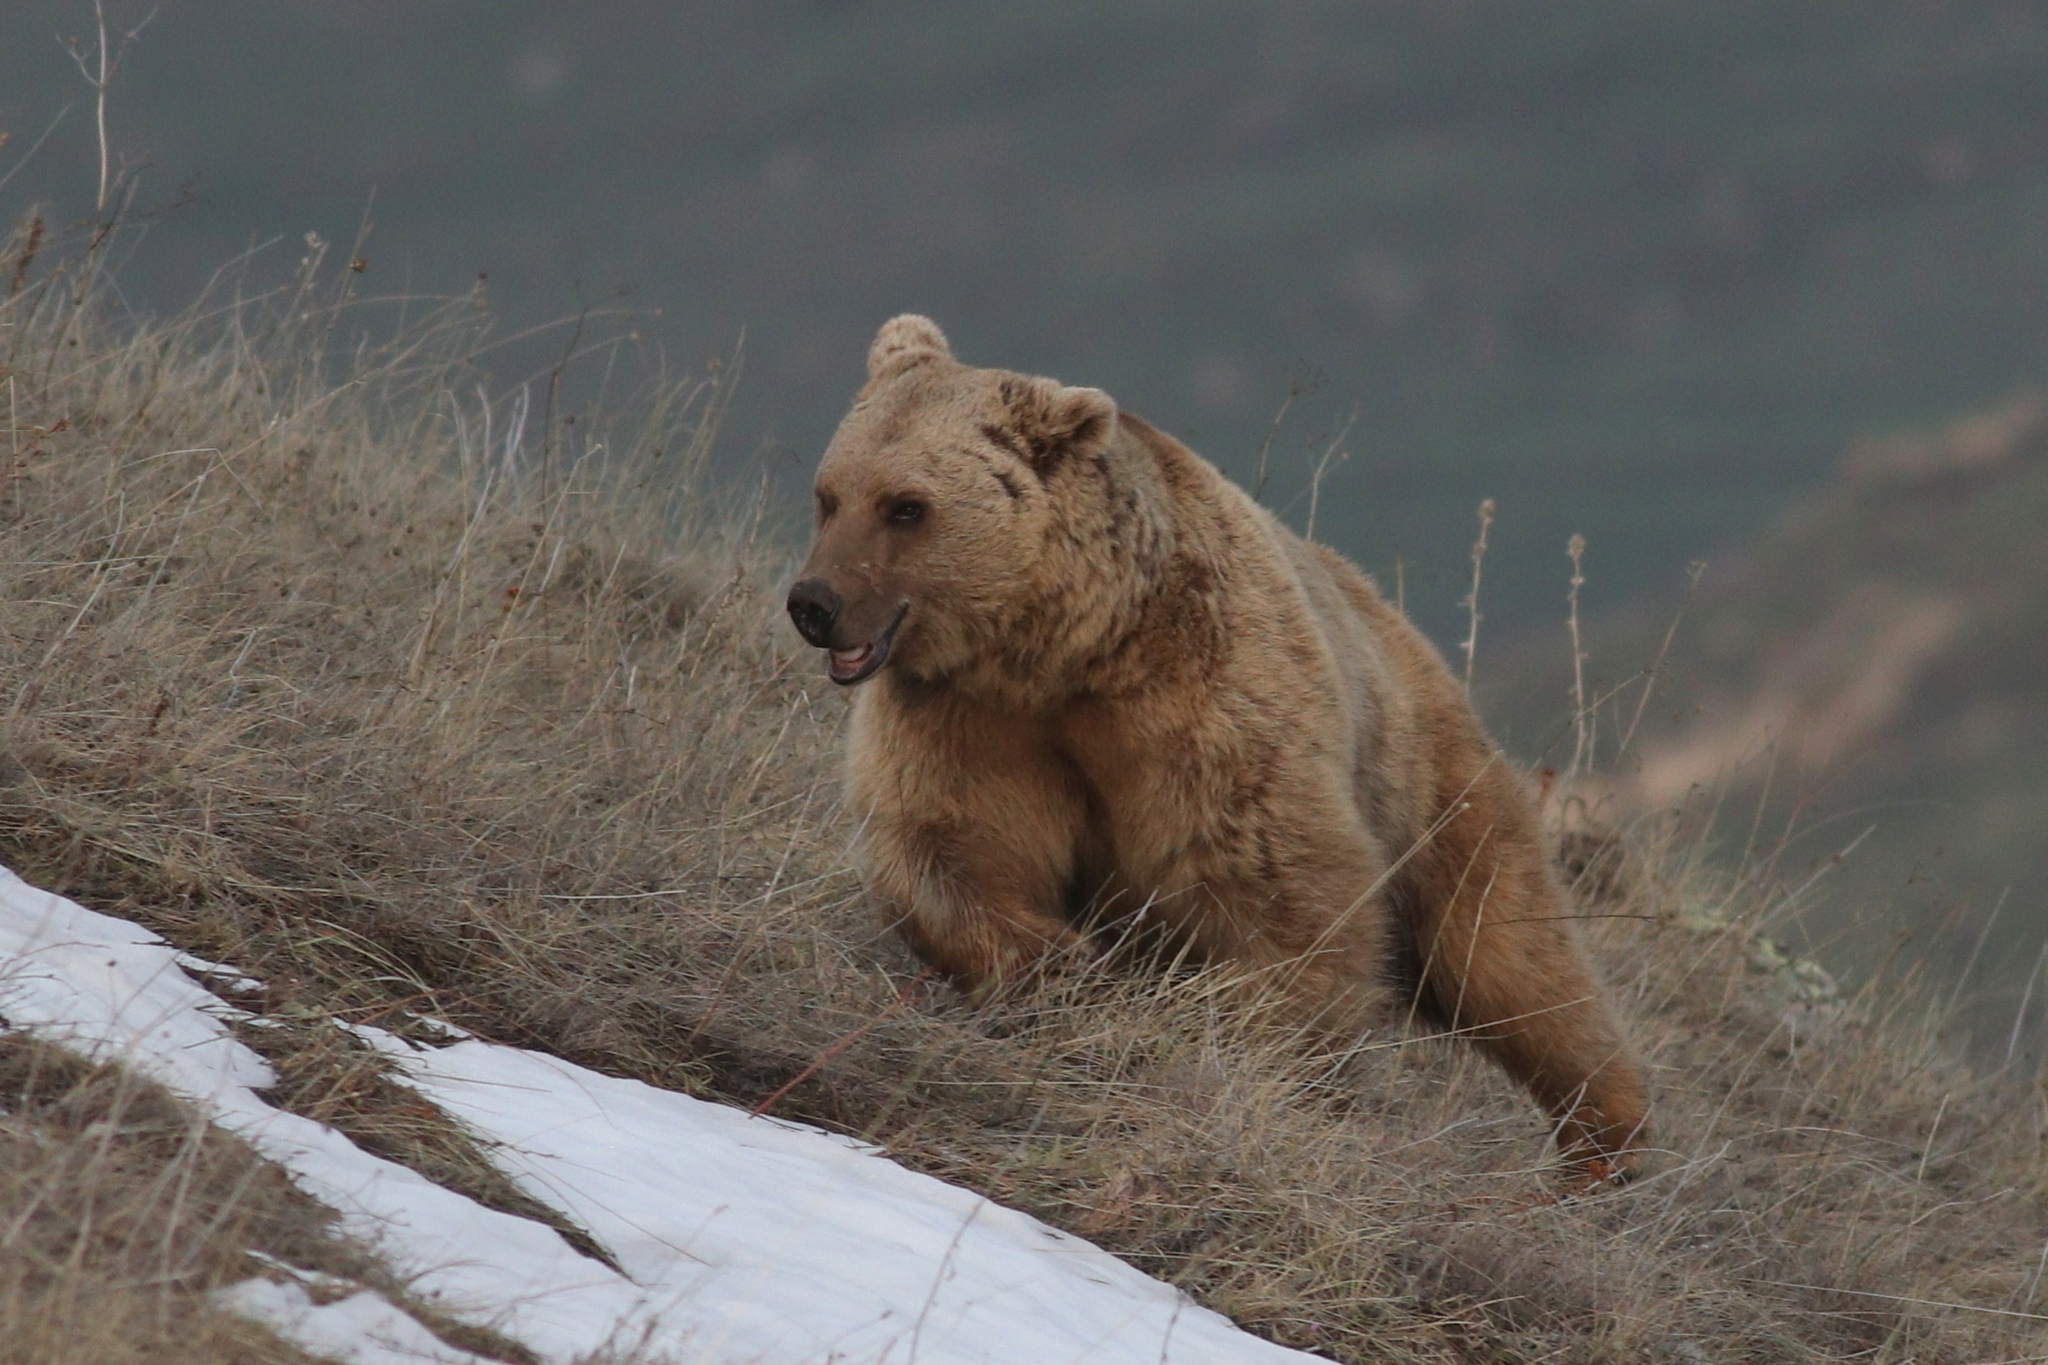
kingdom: Animalia
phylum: Chordata
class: Mammalia
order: Carnivora
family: Ursidae
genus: Ursus
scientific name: Ursus arctos
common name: Brown bear
